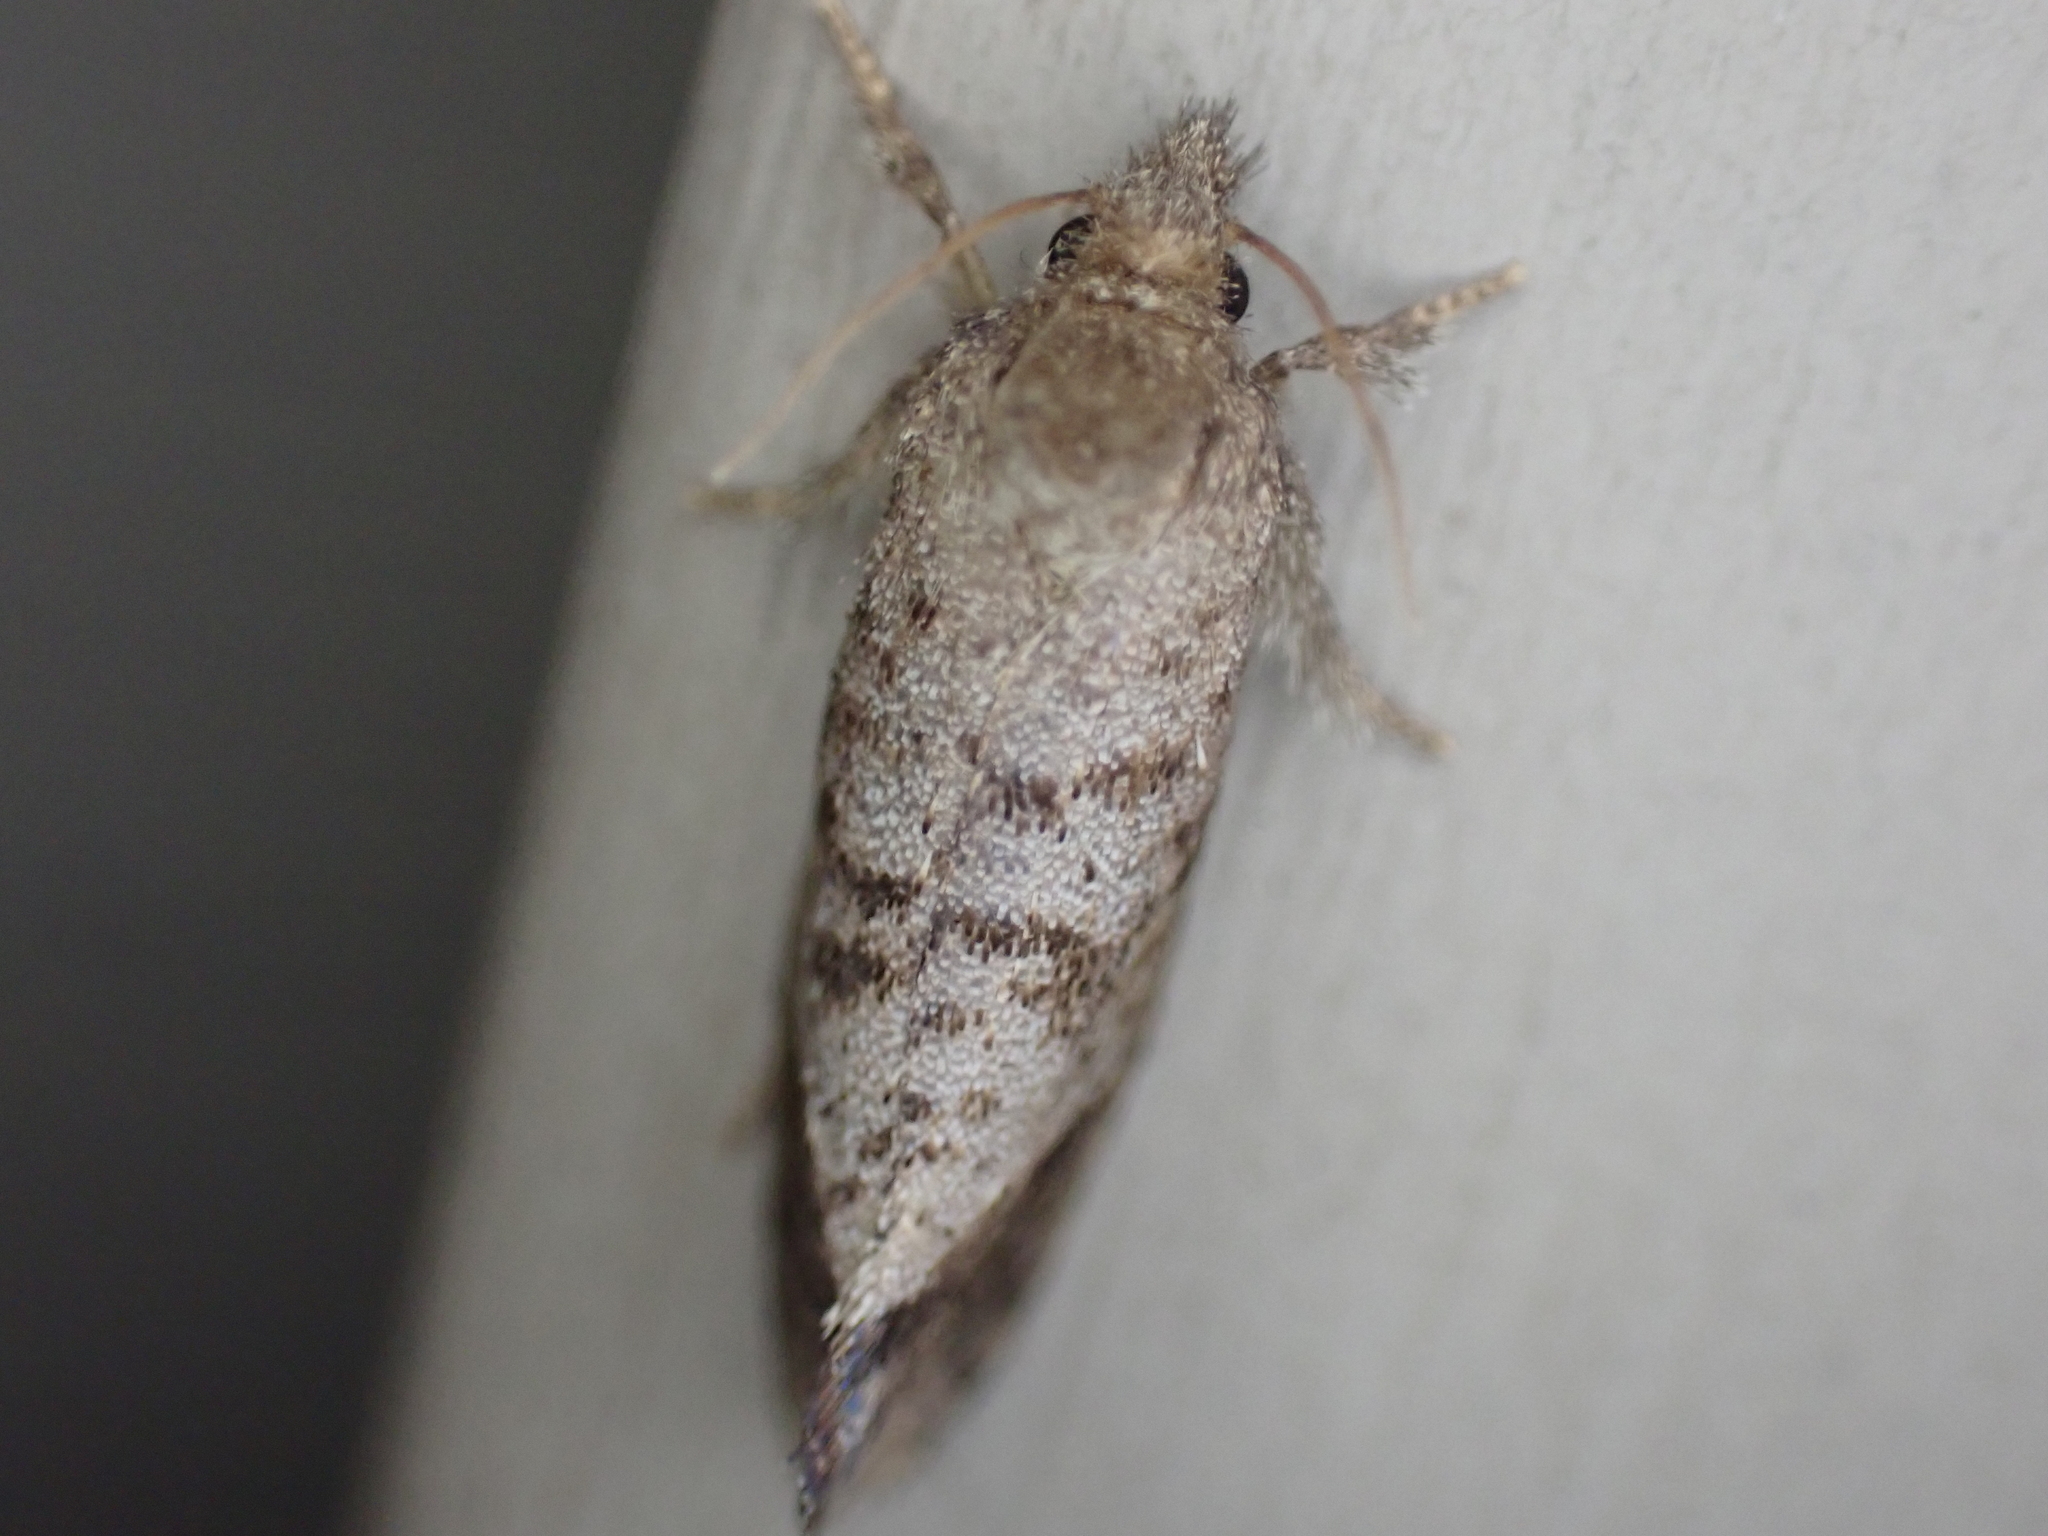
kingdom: Animalia
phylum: Arthropoda
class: Insecta
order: Lepidoptera
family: Tineidae
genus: Acrolophus
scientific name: Acrolophus texanella
